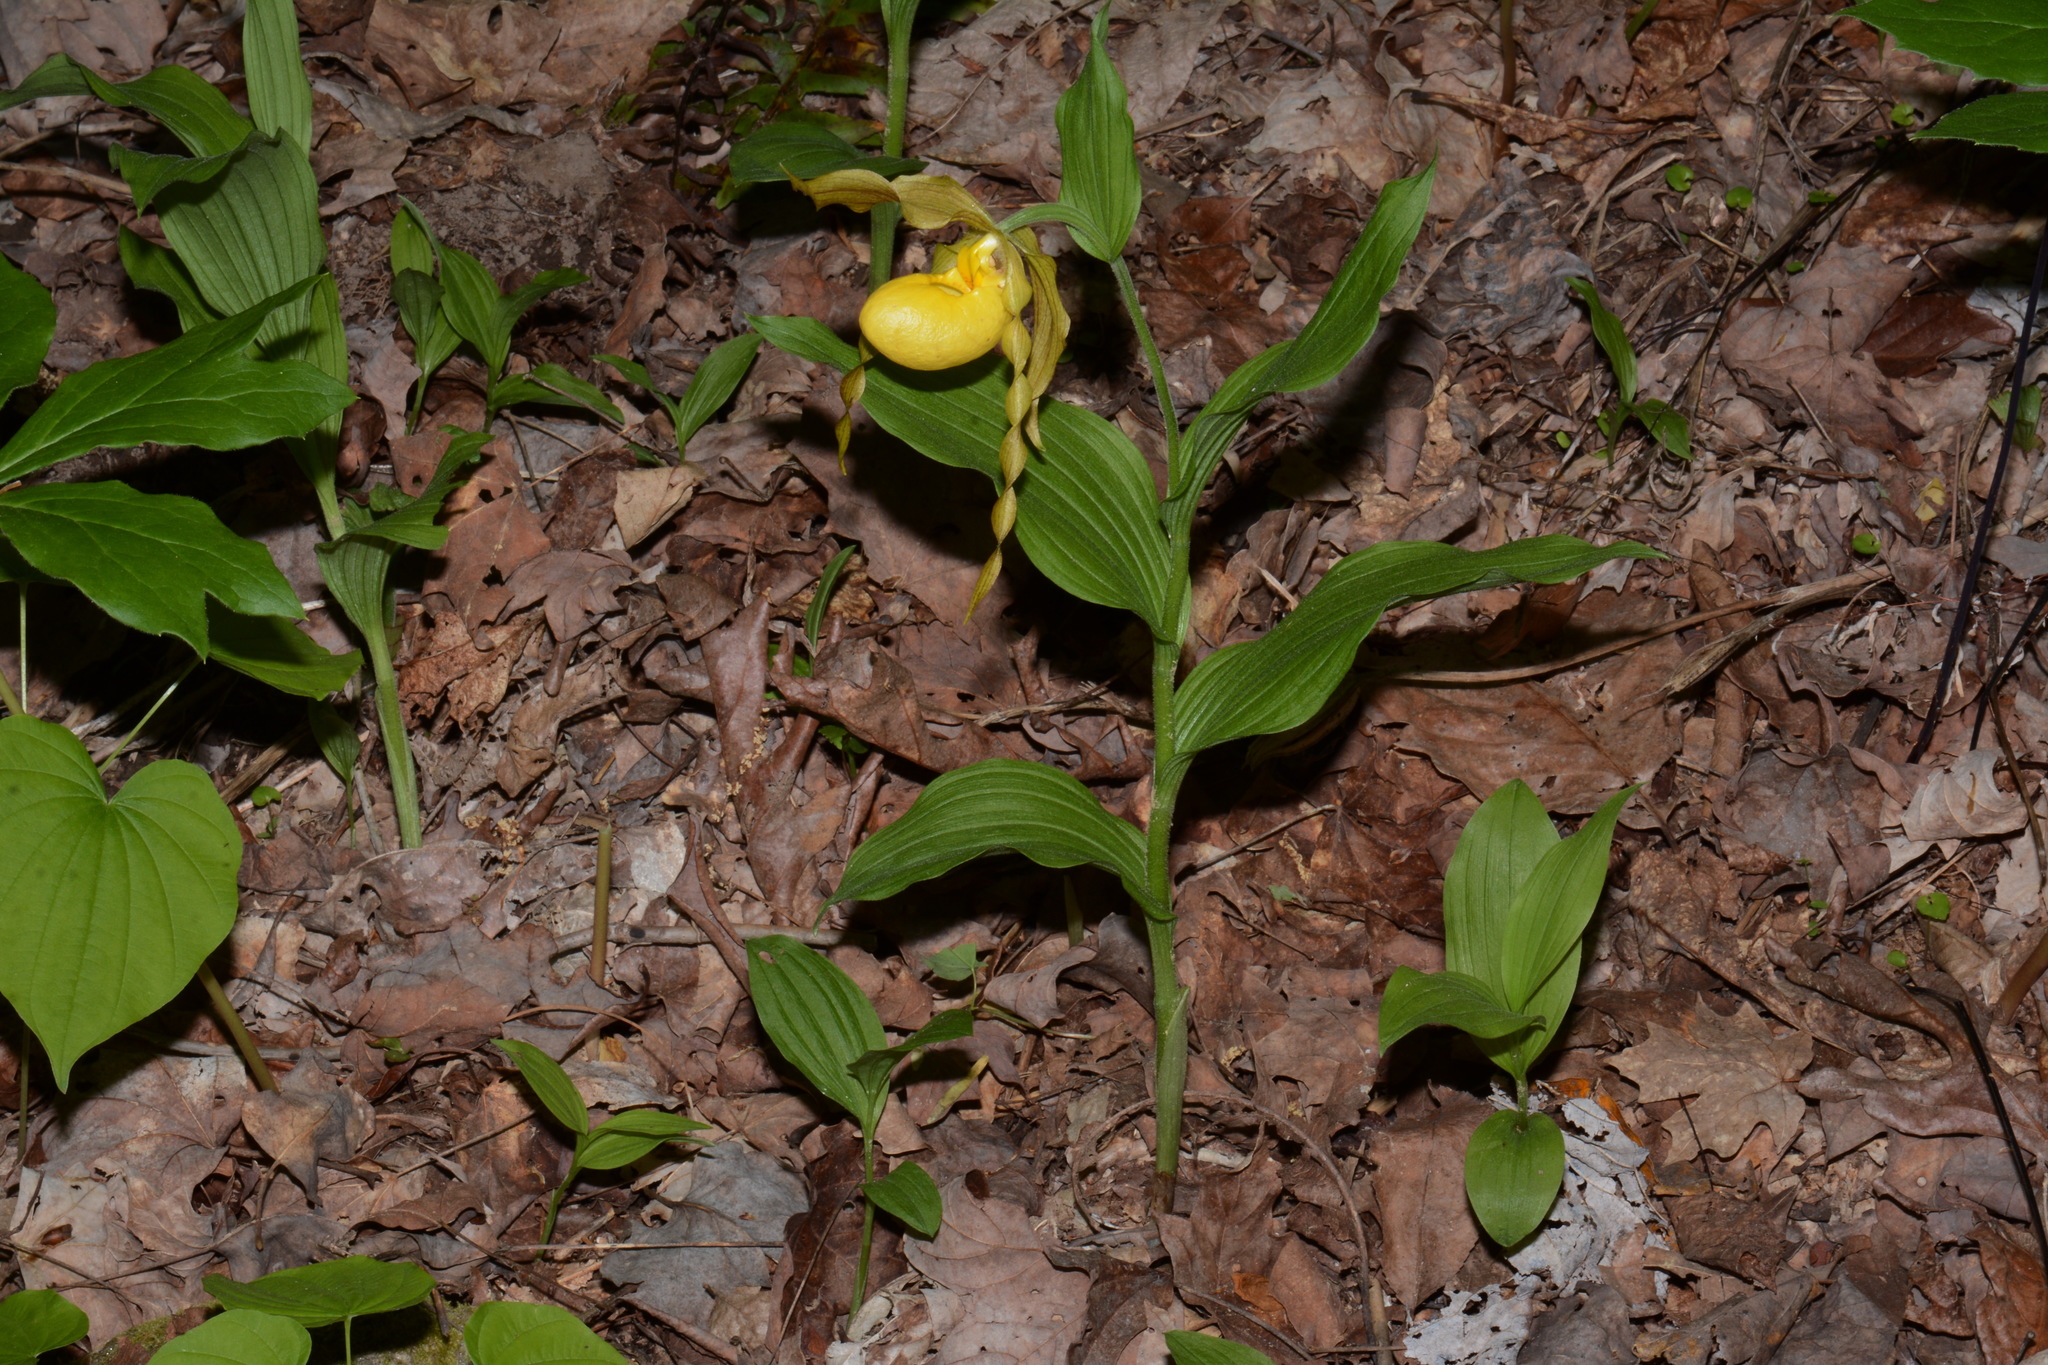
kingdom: Plantae
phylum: Tracheophyta
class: Liliopsida
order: Asparagales
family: Orchidaceae
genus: Cypripedium
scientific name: Cypripedium parviflorum
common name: American yellow lady's-slipper
